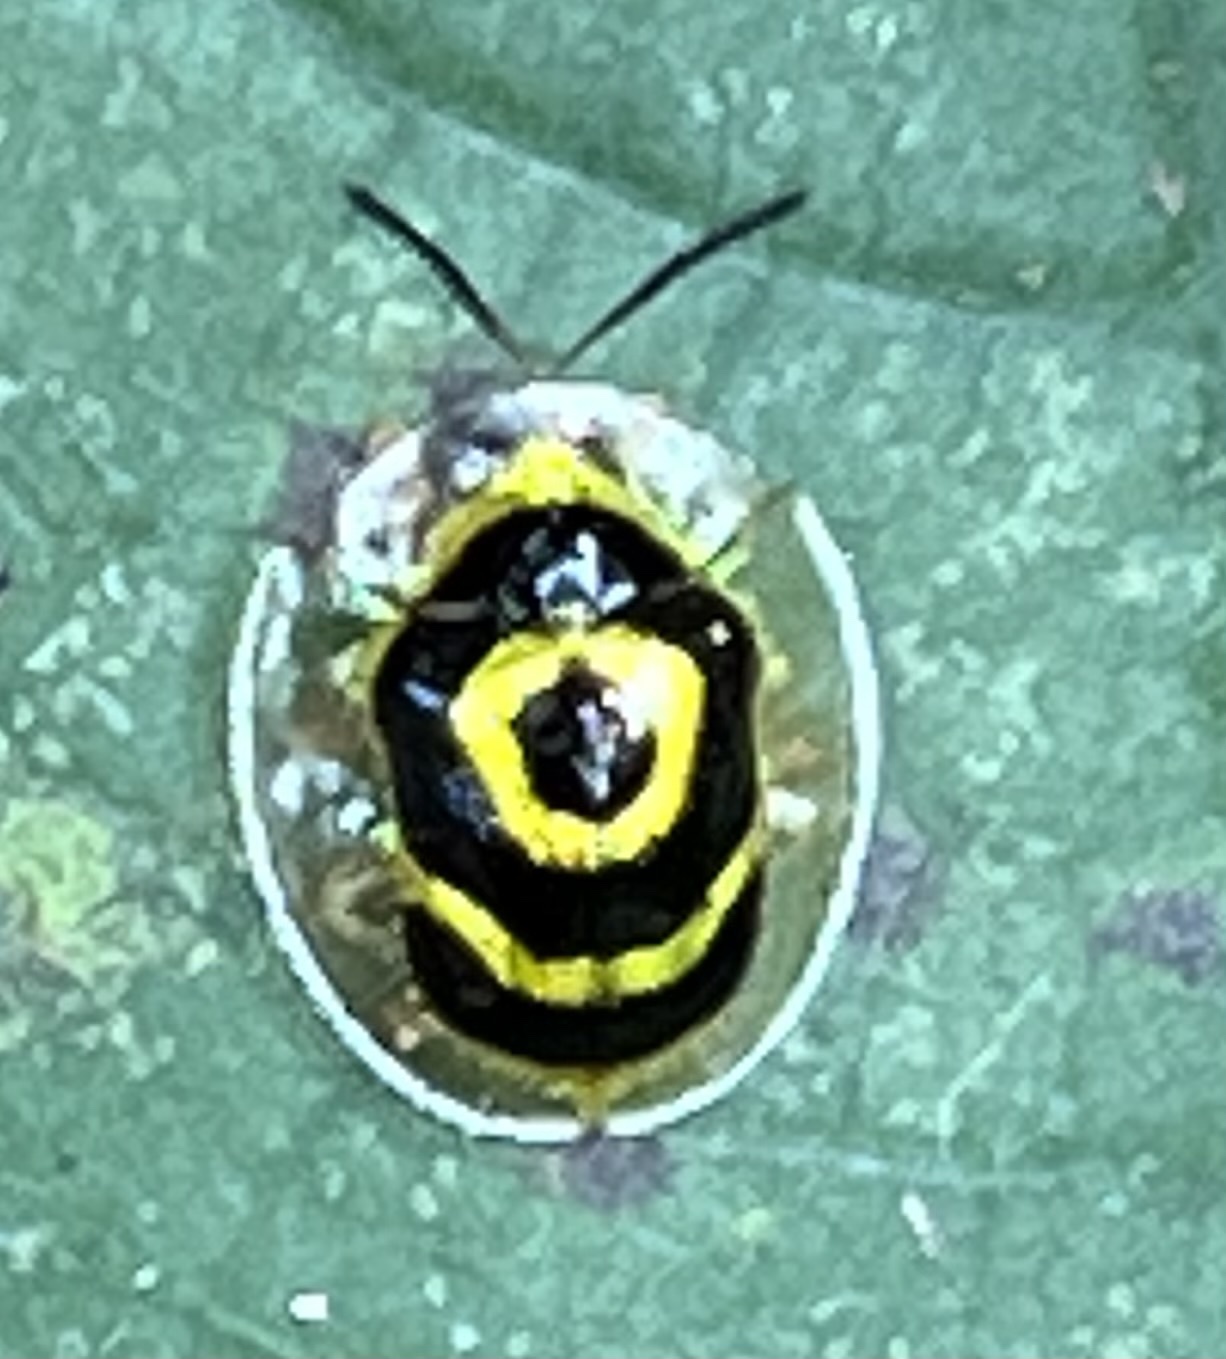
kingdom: Animalia
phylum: Arthropoda
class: Insecta
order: Coleoptera
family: Chrysomelidae
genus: Ischnocodia
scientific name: Ischnocodia annulus
